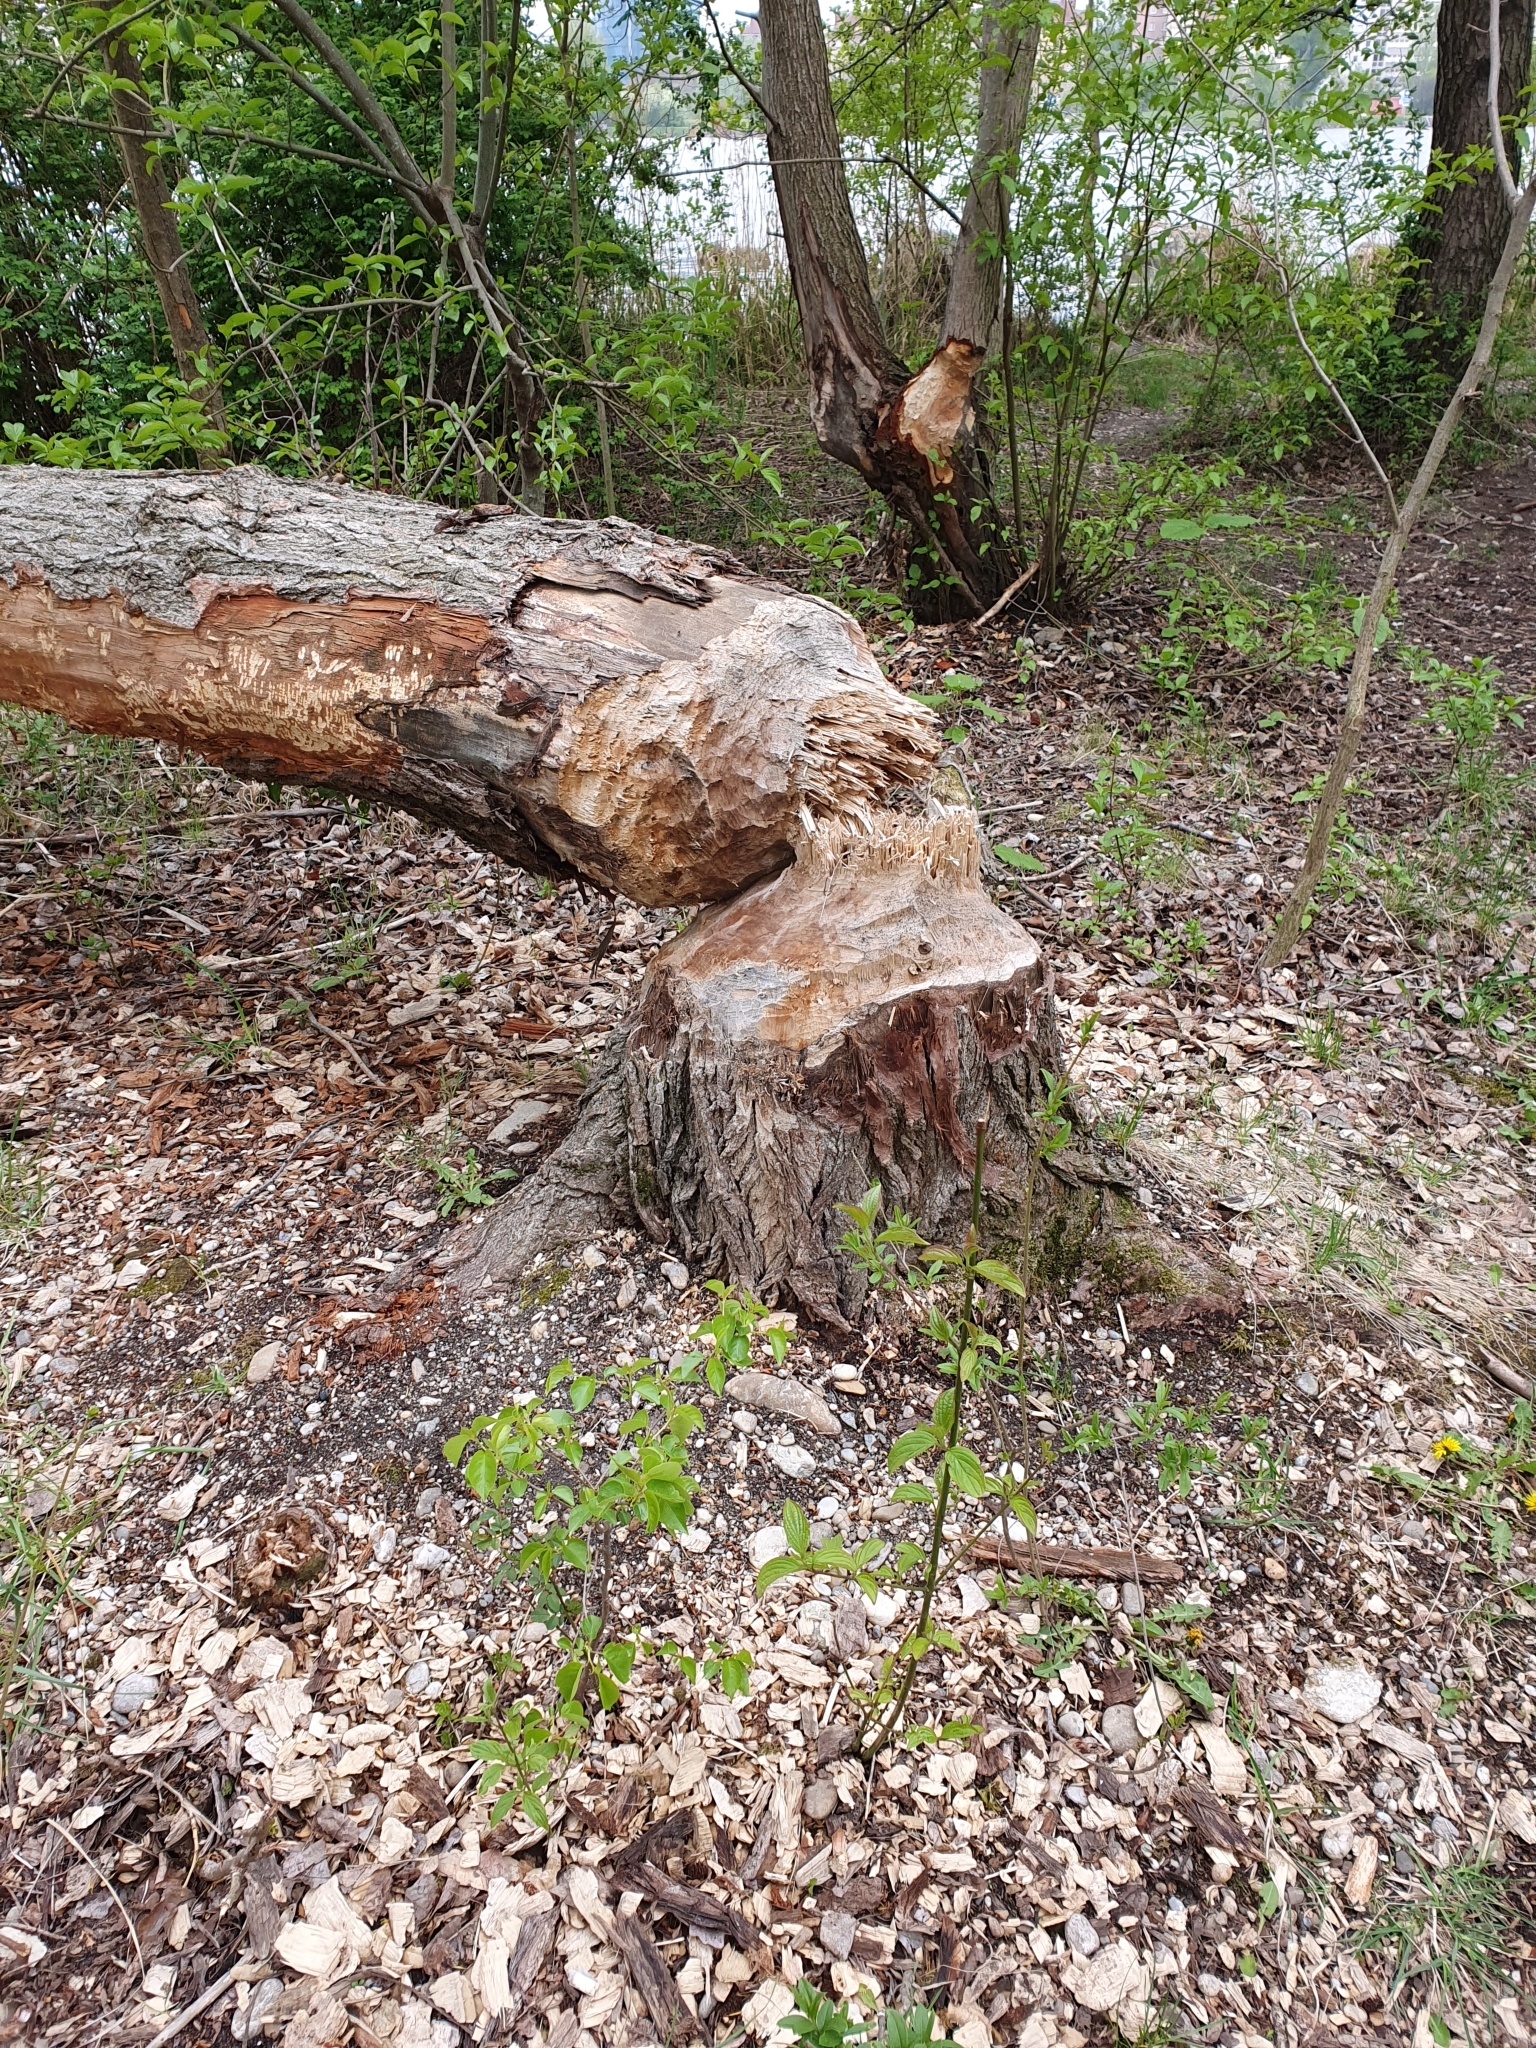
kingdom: Animalia
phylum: Chordata
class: Mammalia
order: Rodentia
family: Castoridae
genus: Castor
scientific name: Castor fiber
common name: Eurasian beaver
